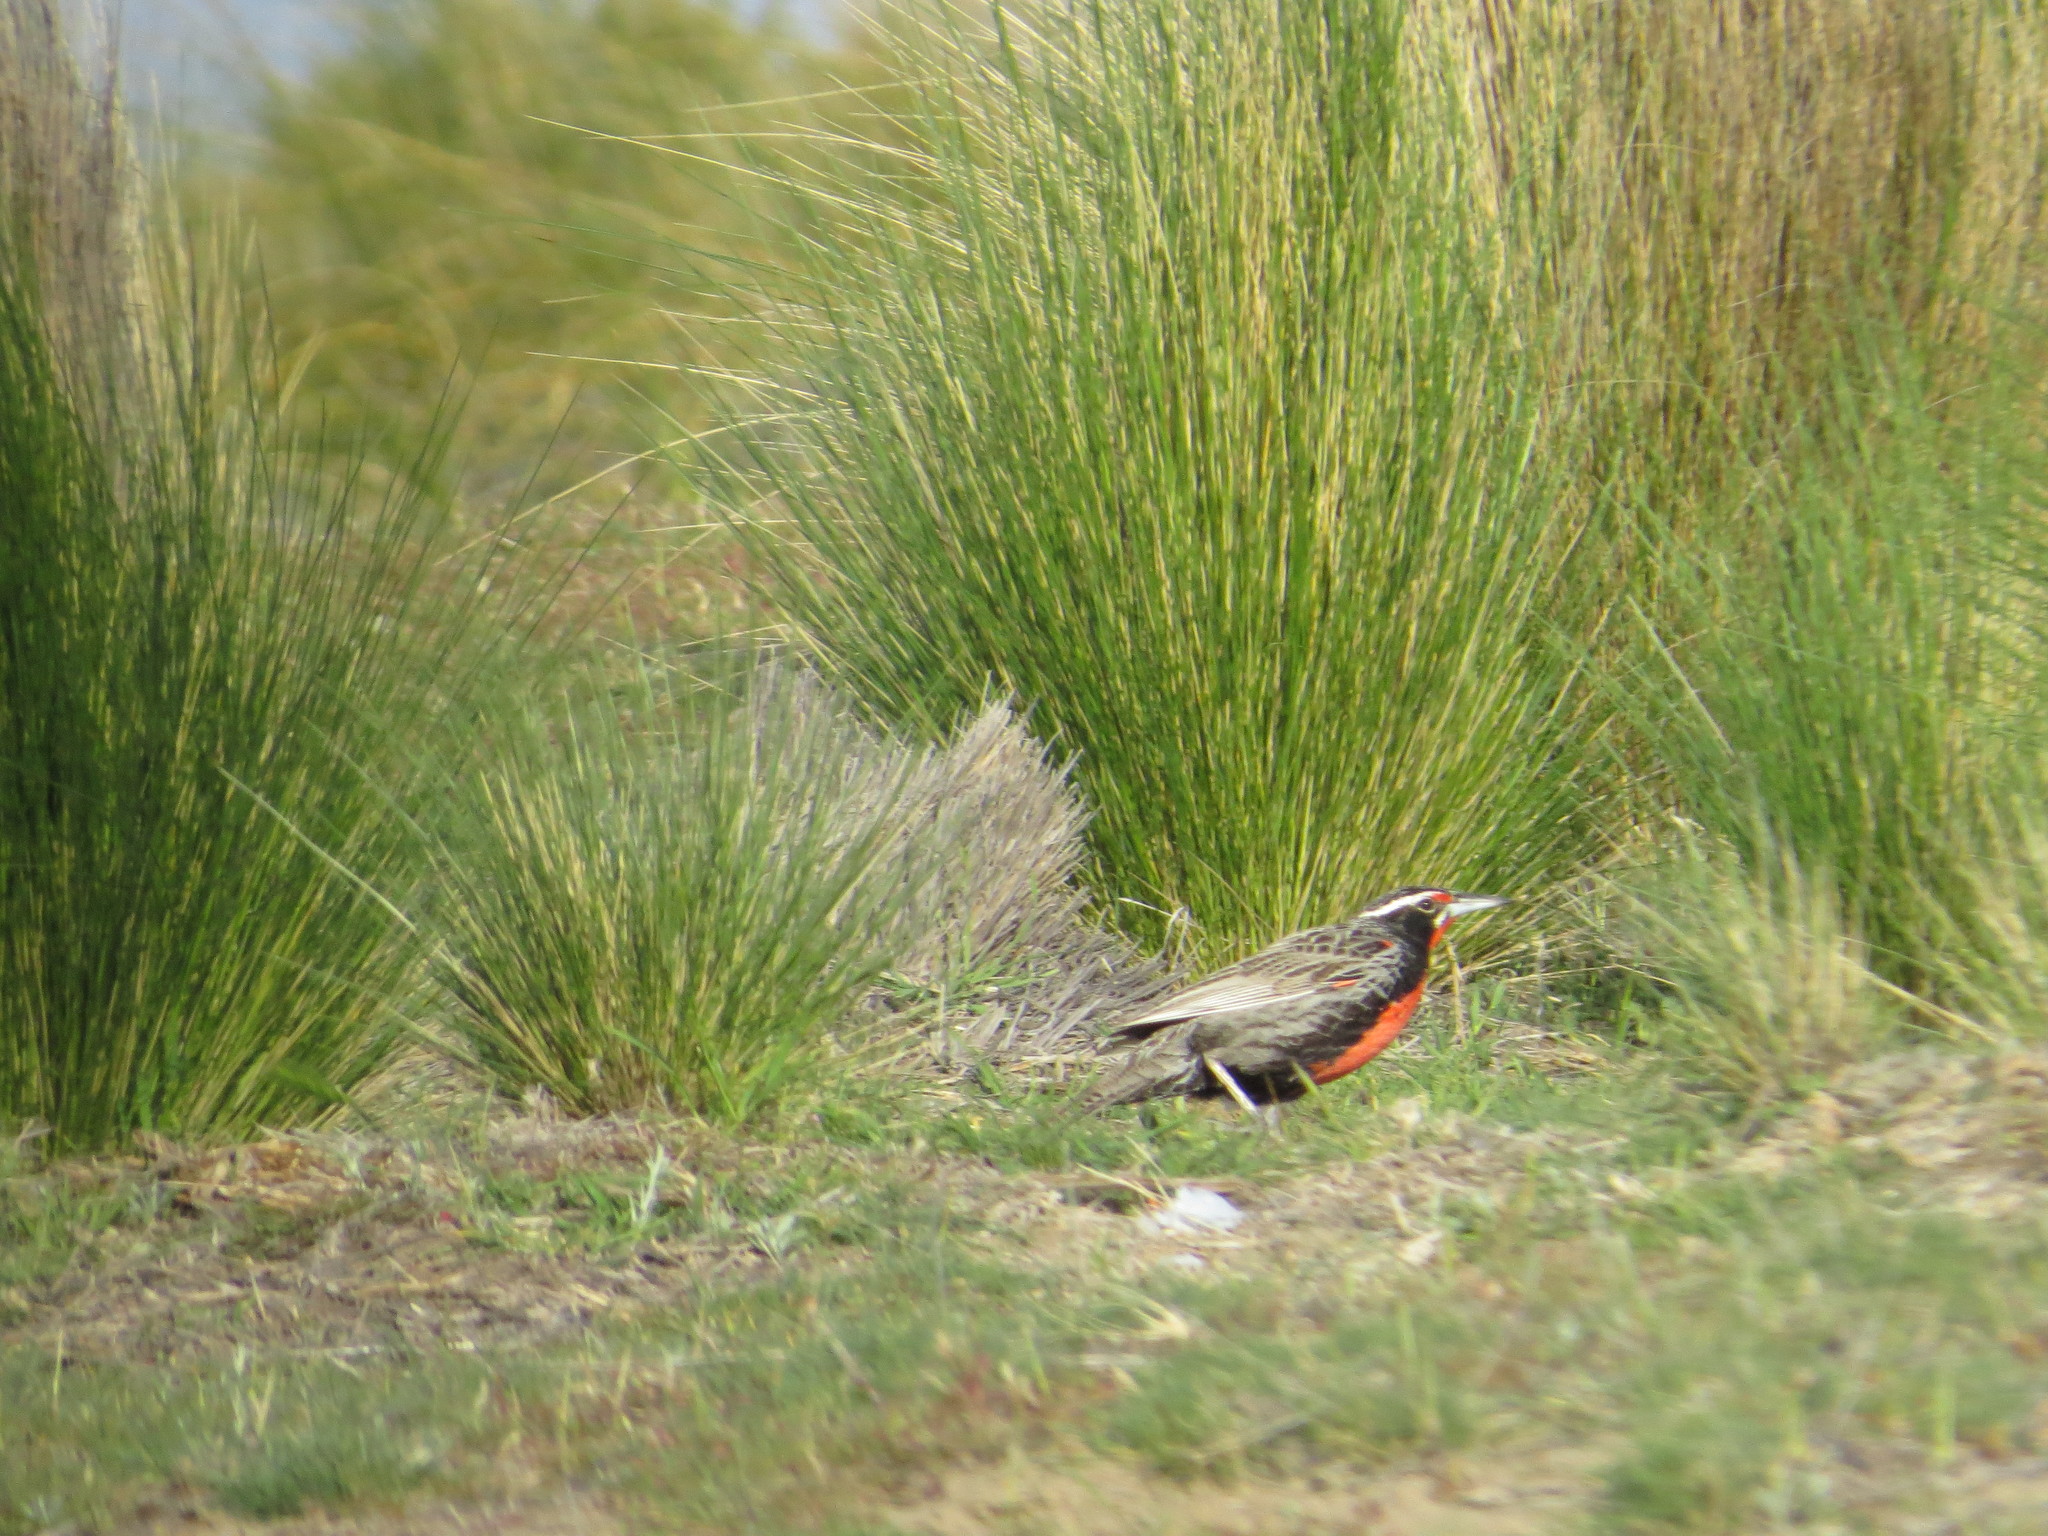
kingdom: Animalia
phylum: Chordata
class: Aves
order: Passeriformes
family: Icteridae
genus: Sturnella
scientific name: Sturnella loyca
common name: Long-tailed meadowlark
